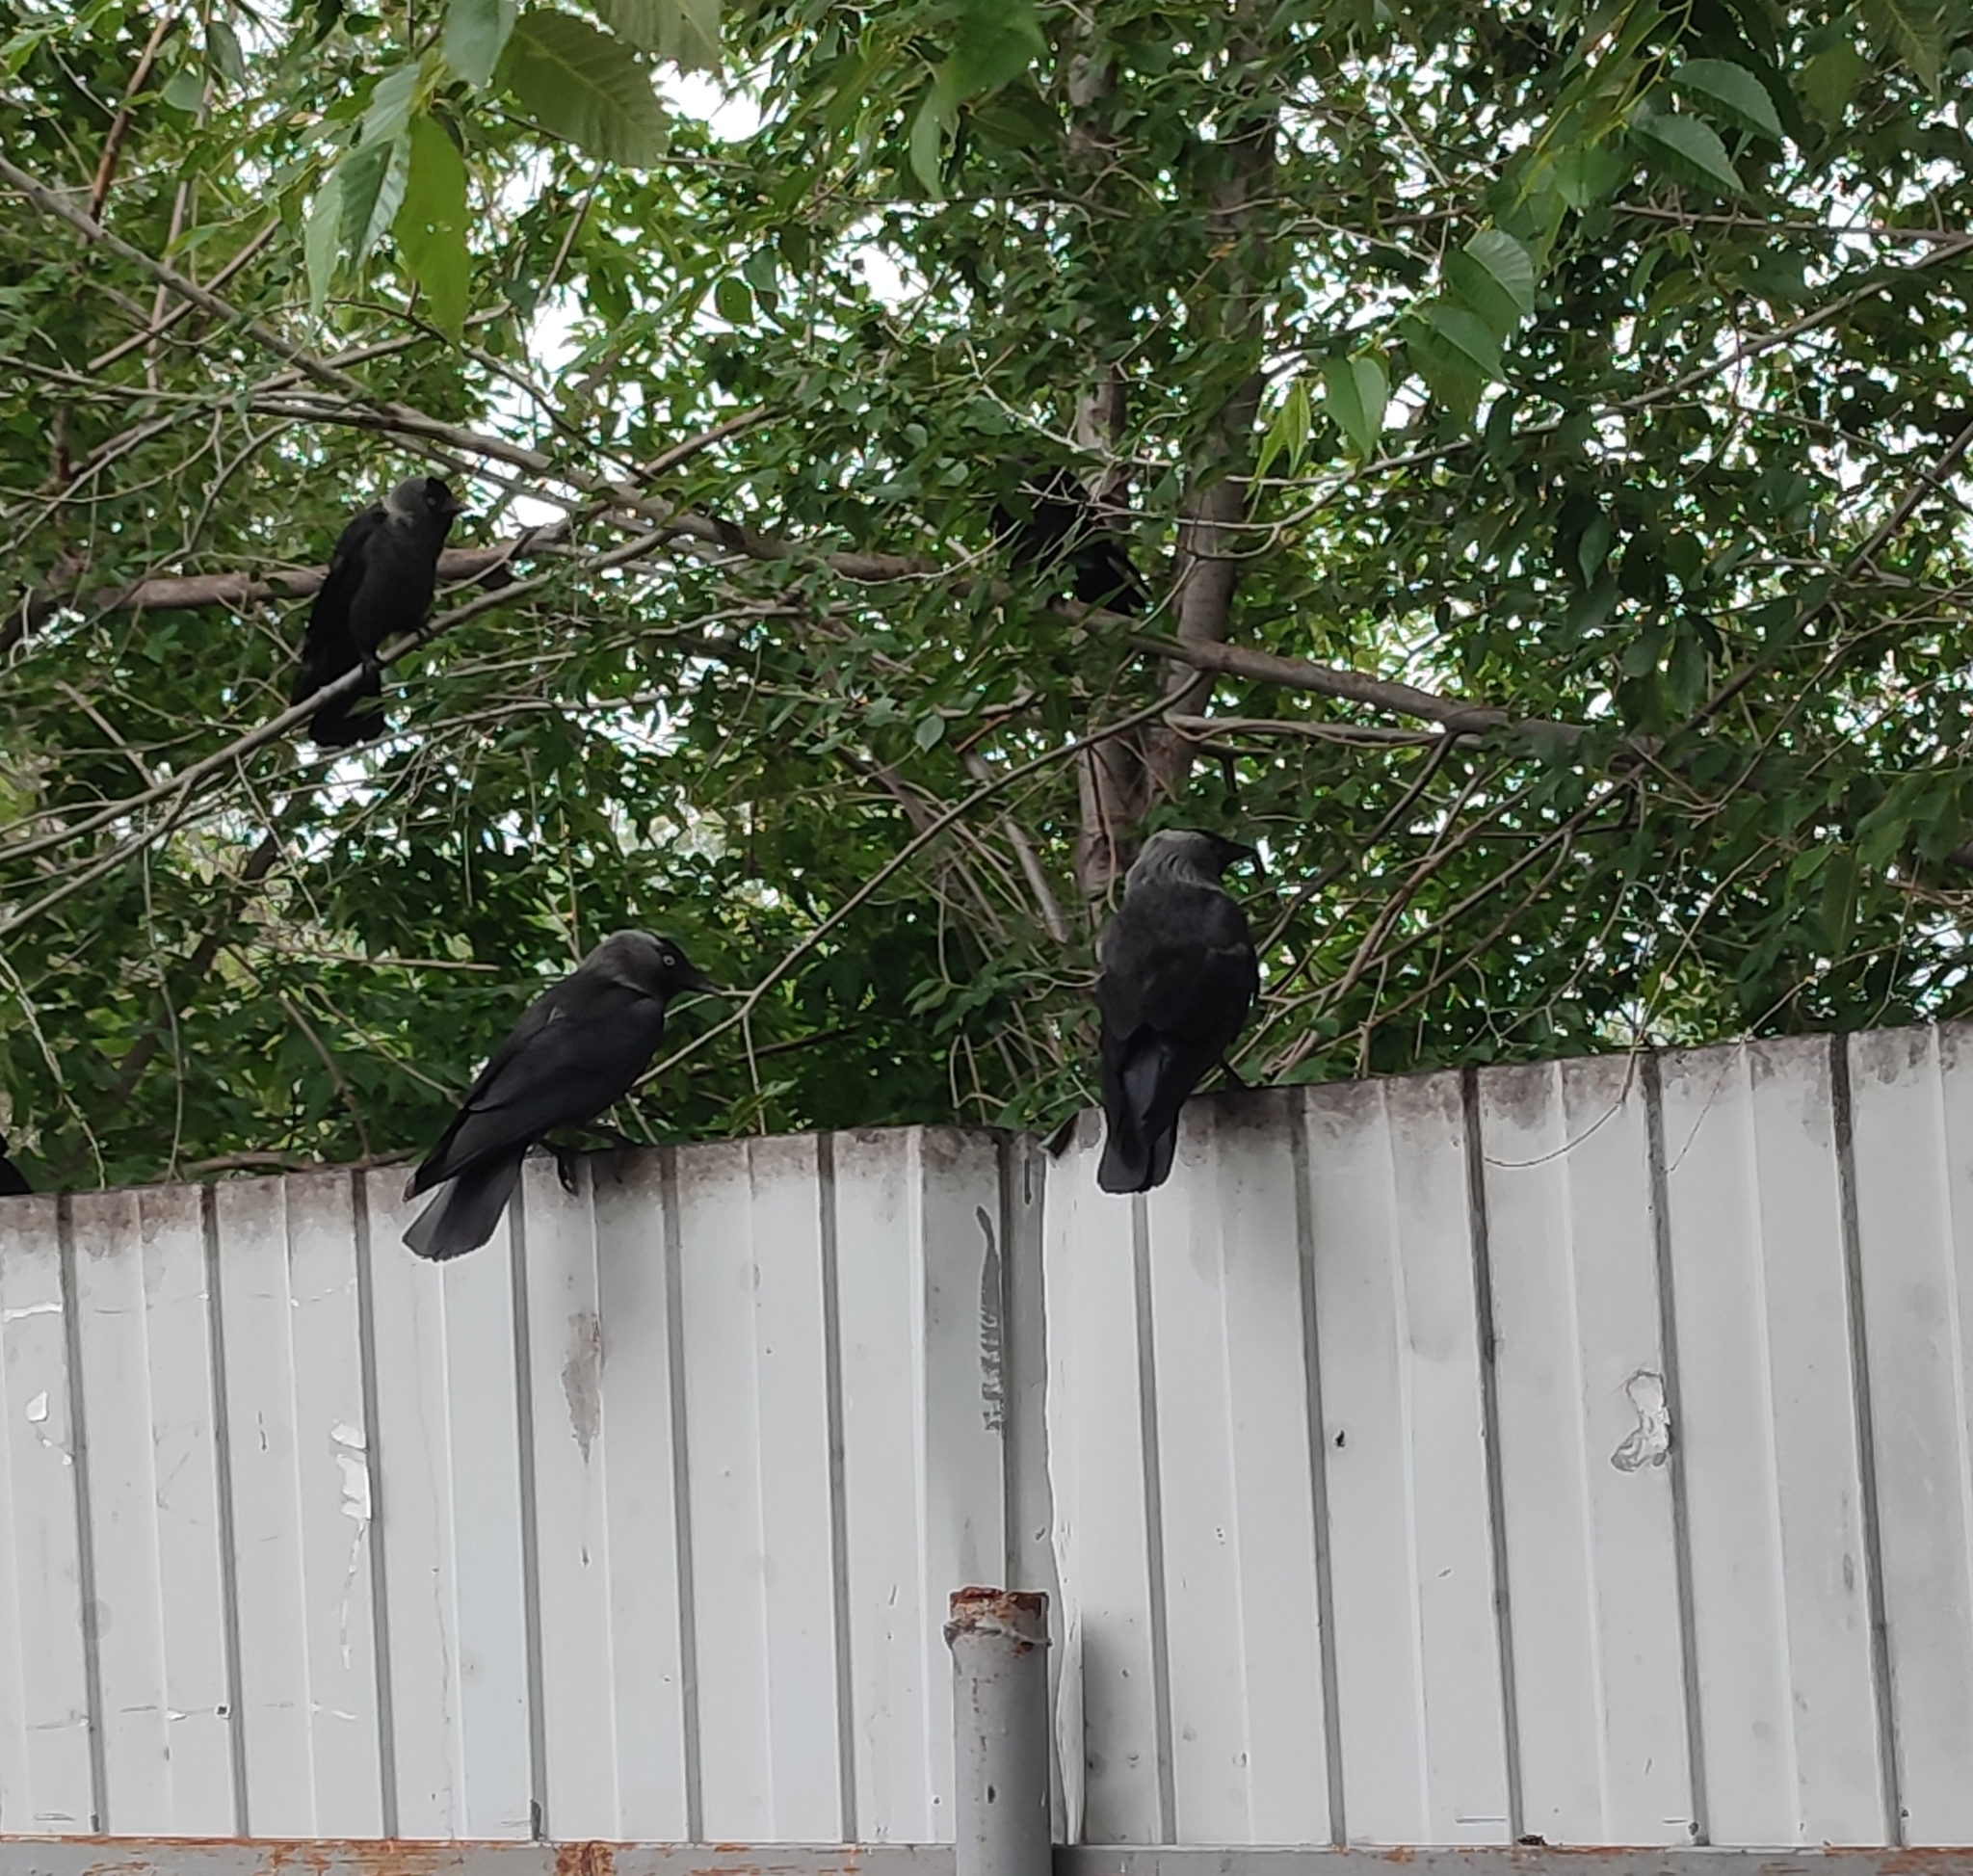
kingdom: Animalia
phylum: Chordata
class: Aves
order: Passeriformes
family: Corvidae
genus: Coloeus
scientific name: Coloeus monedula
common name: Western jackdaw
